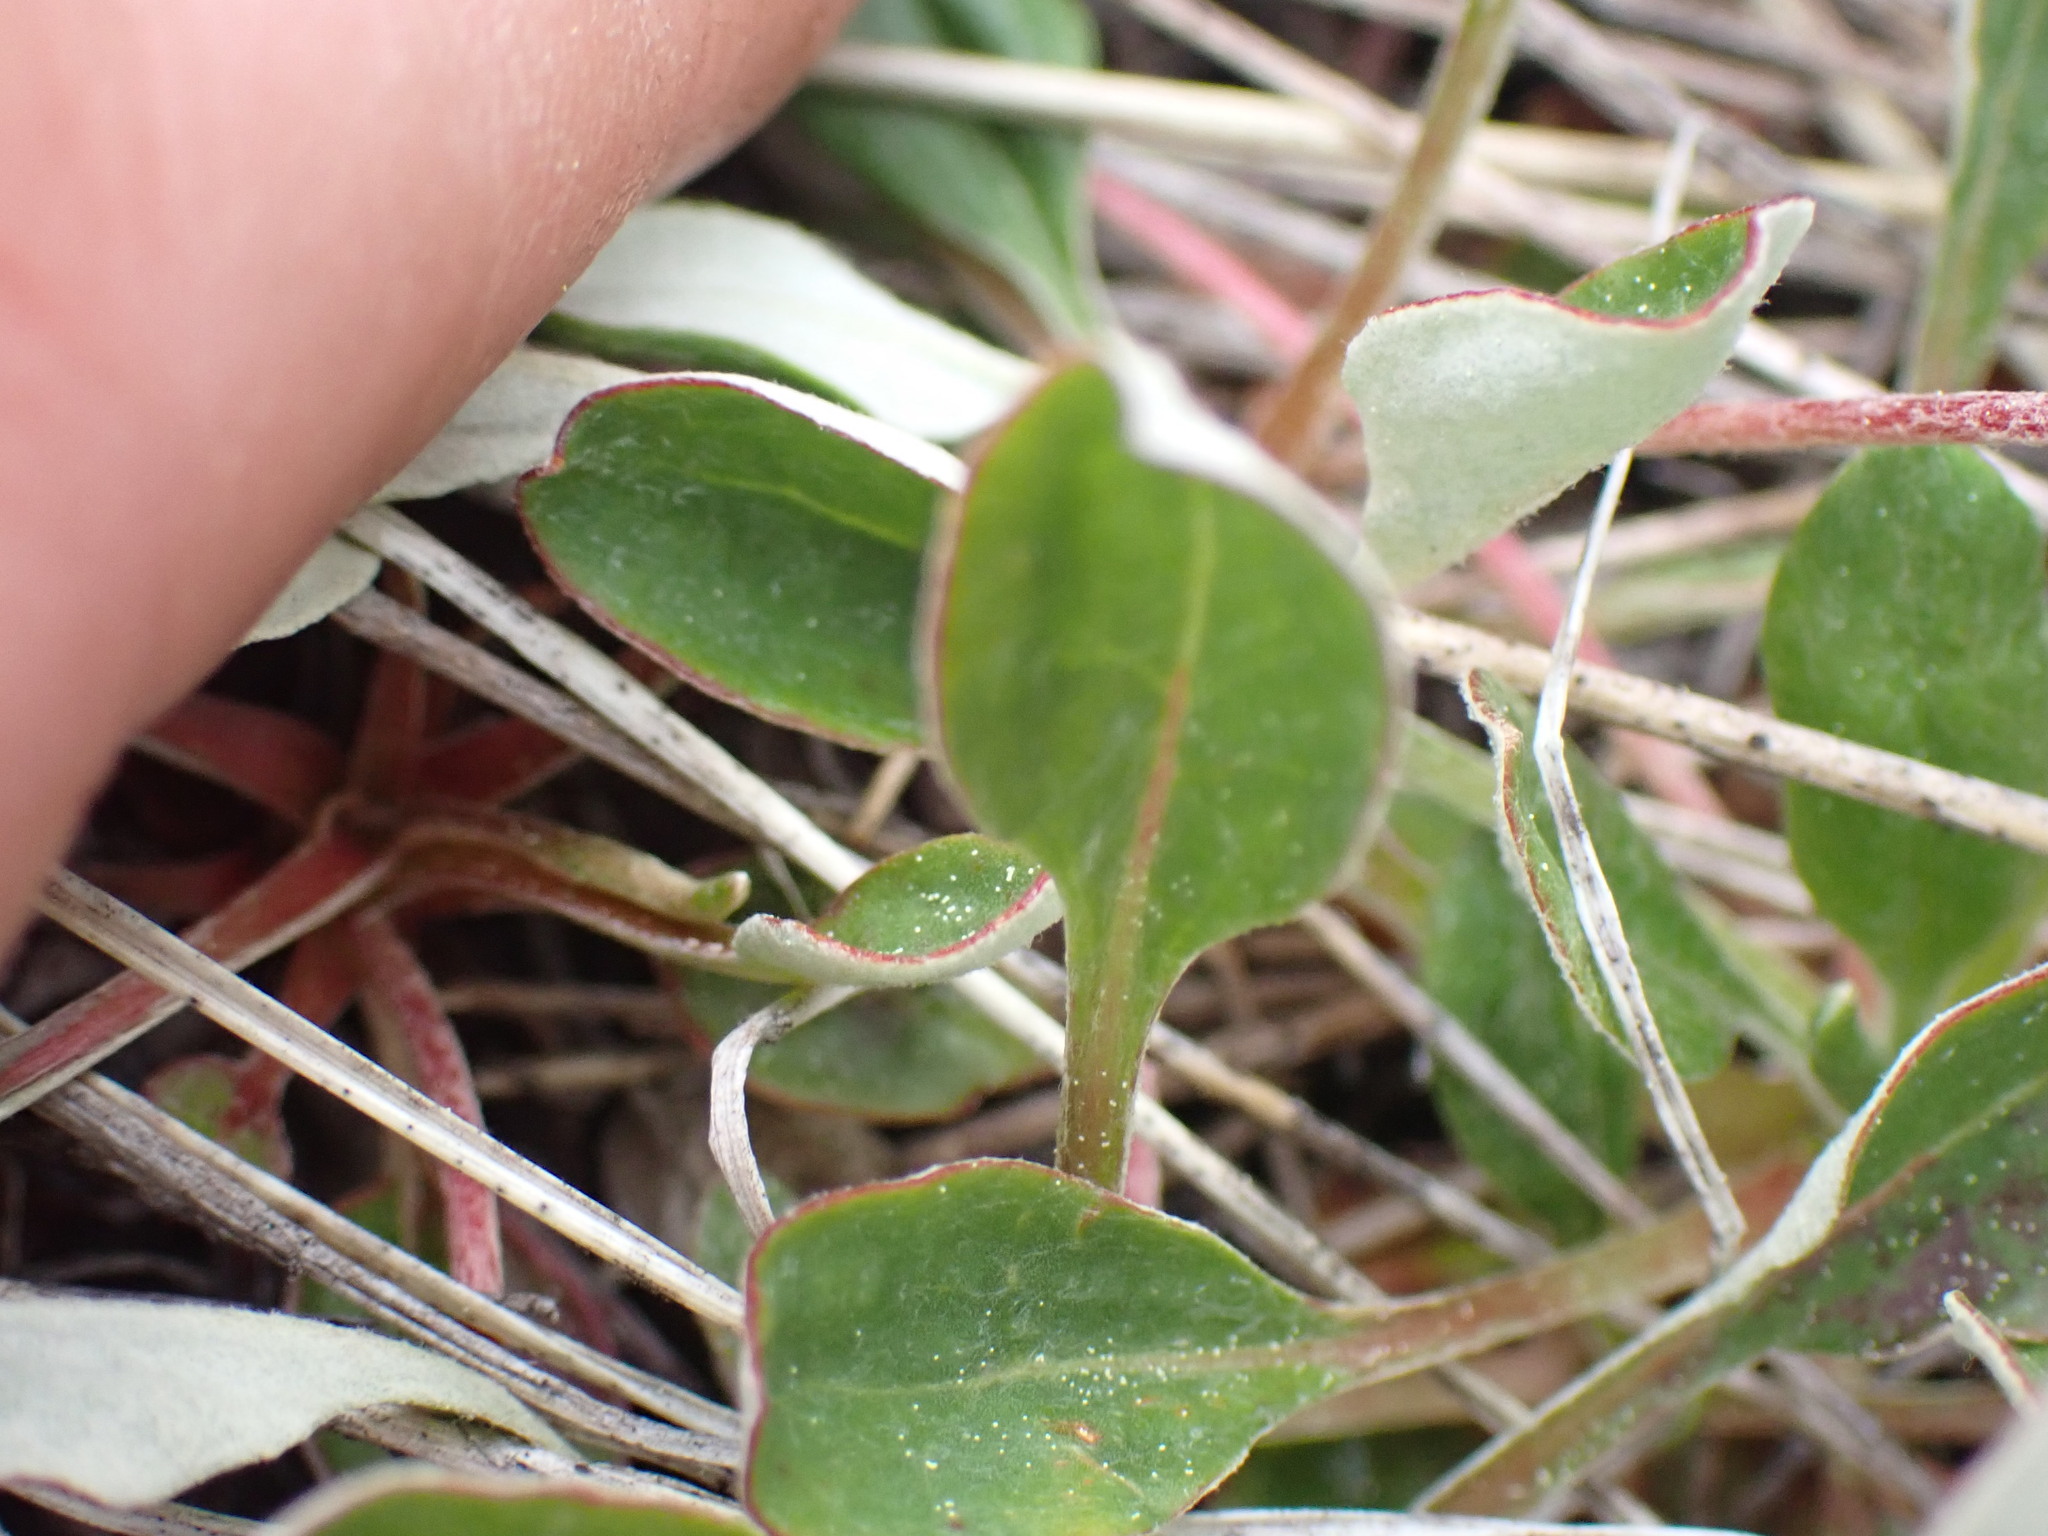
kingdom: Plantae
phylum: Tracheophyta
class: Magnoliopsida
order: Caryophyllales
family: Polygonaceae
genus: Eriogonum
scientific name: Eriogonum umbellatum
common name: Sulfur-buckwheat
